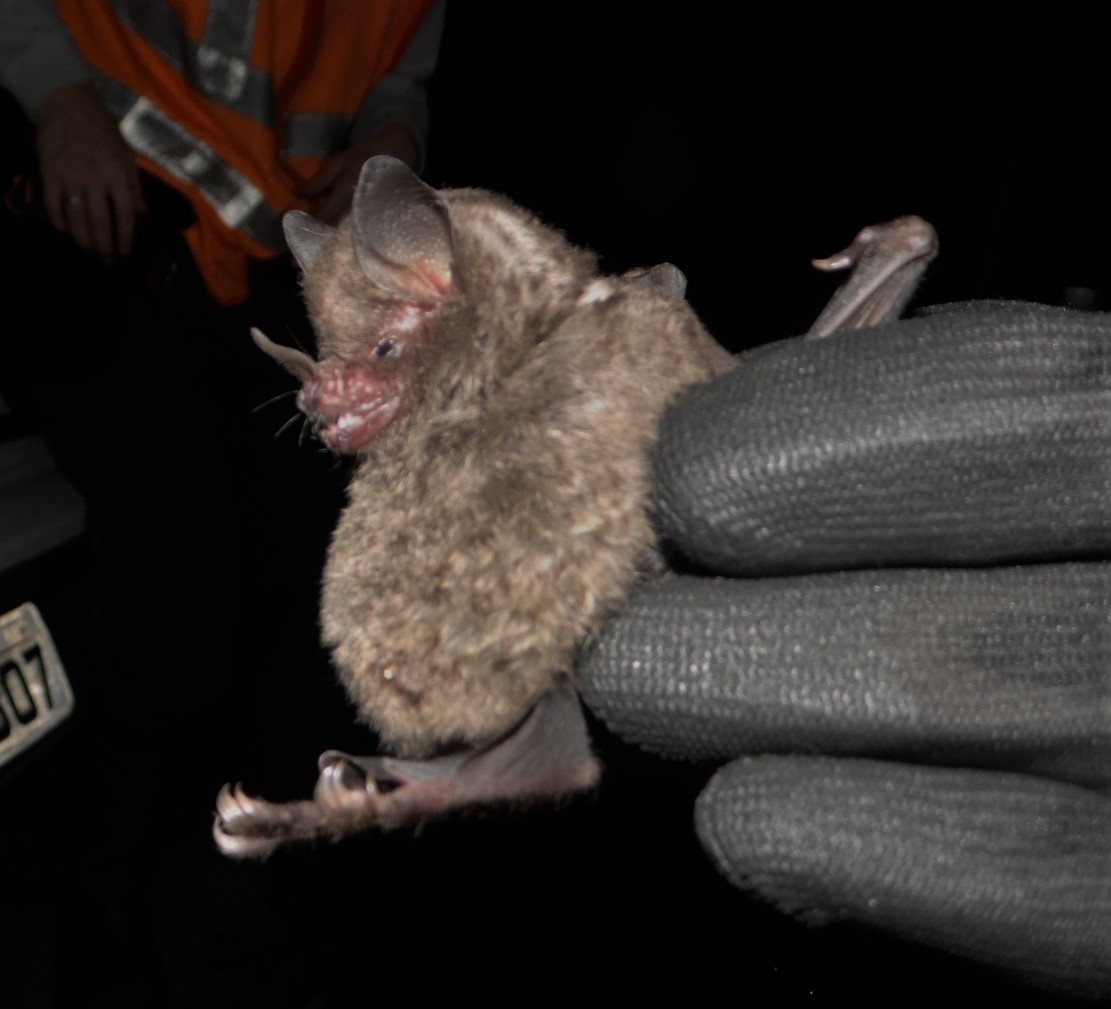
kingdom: Animalia
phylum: Chordata
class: Mammalia
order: Chiroptera
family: Phyllostomidae
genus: Carollia
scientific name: Carollia perspicillata
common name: Seba's short-tailed bat
